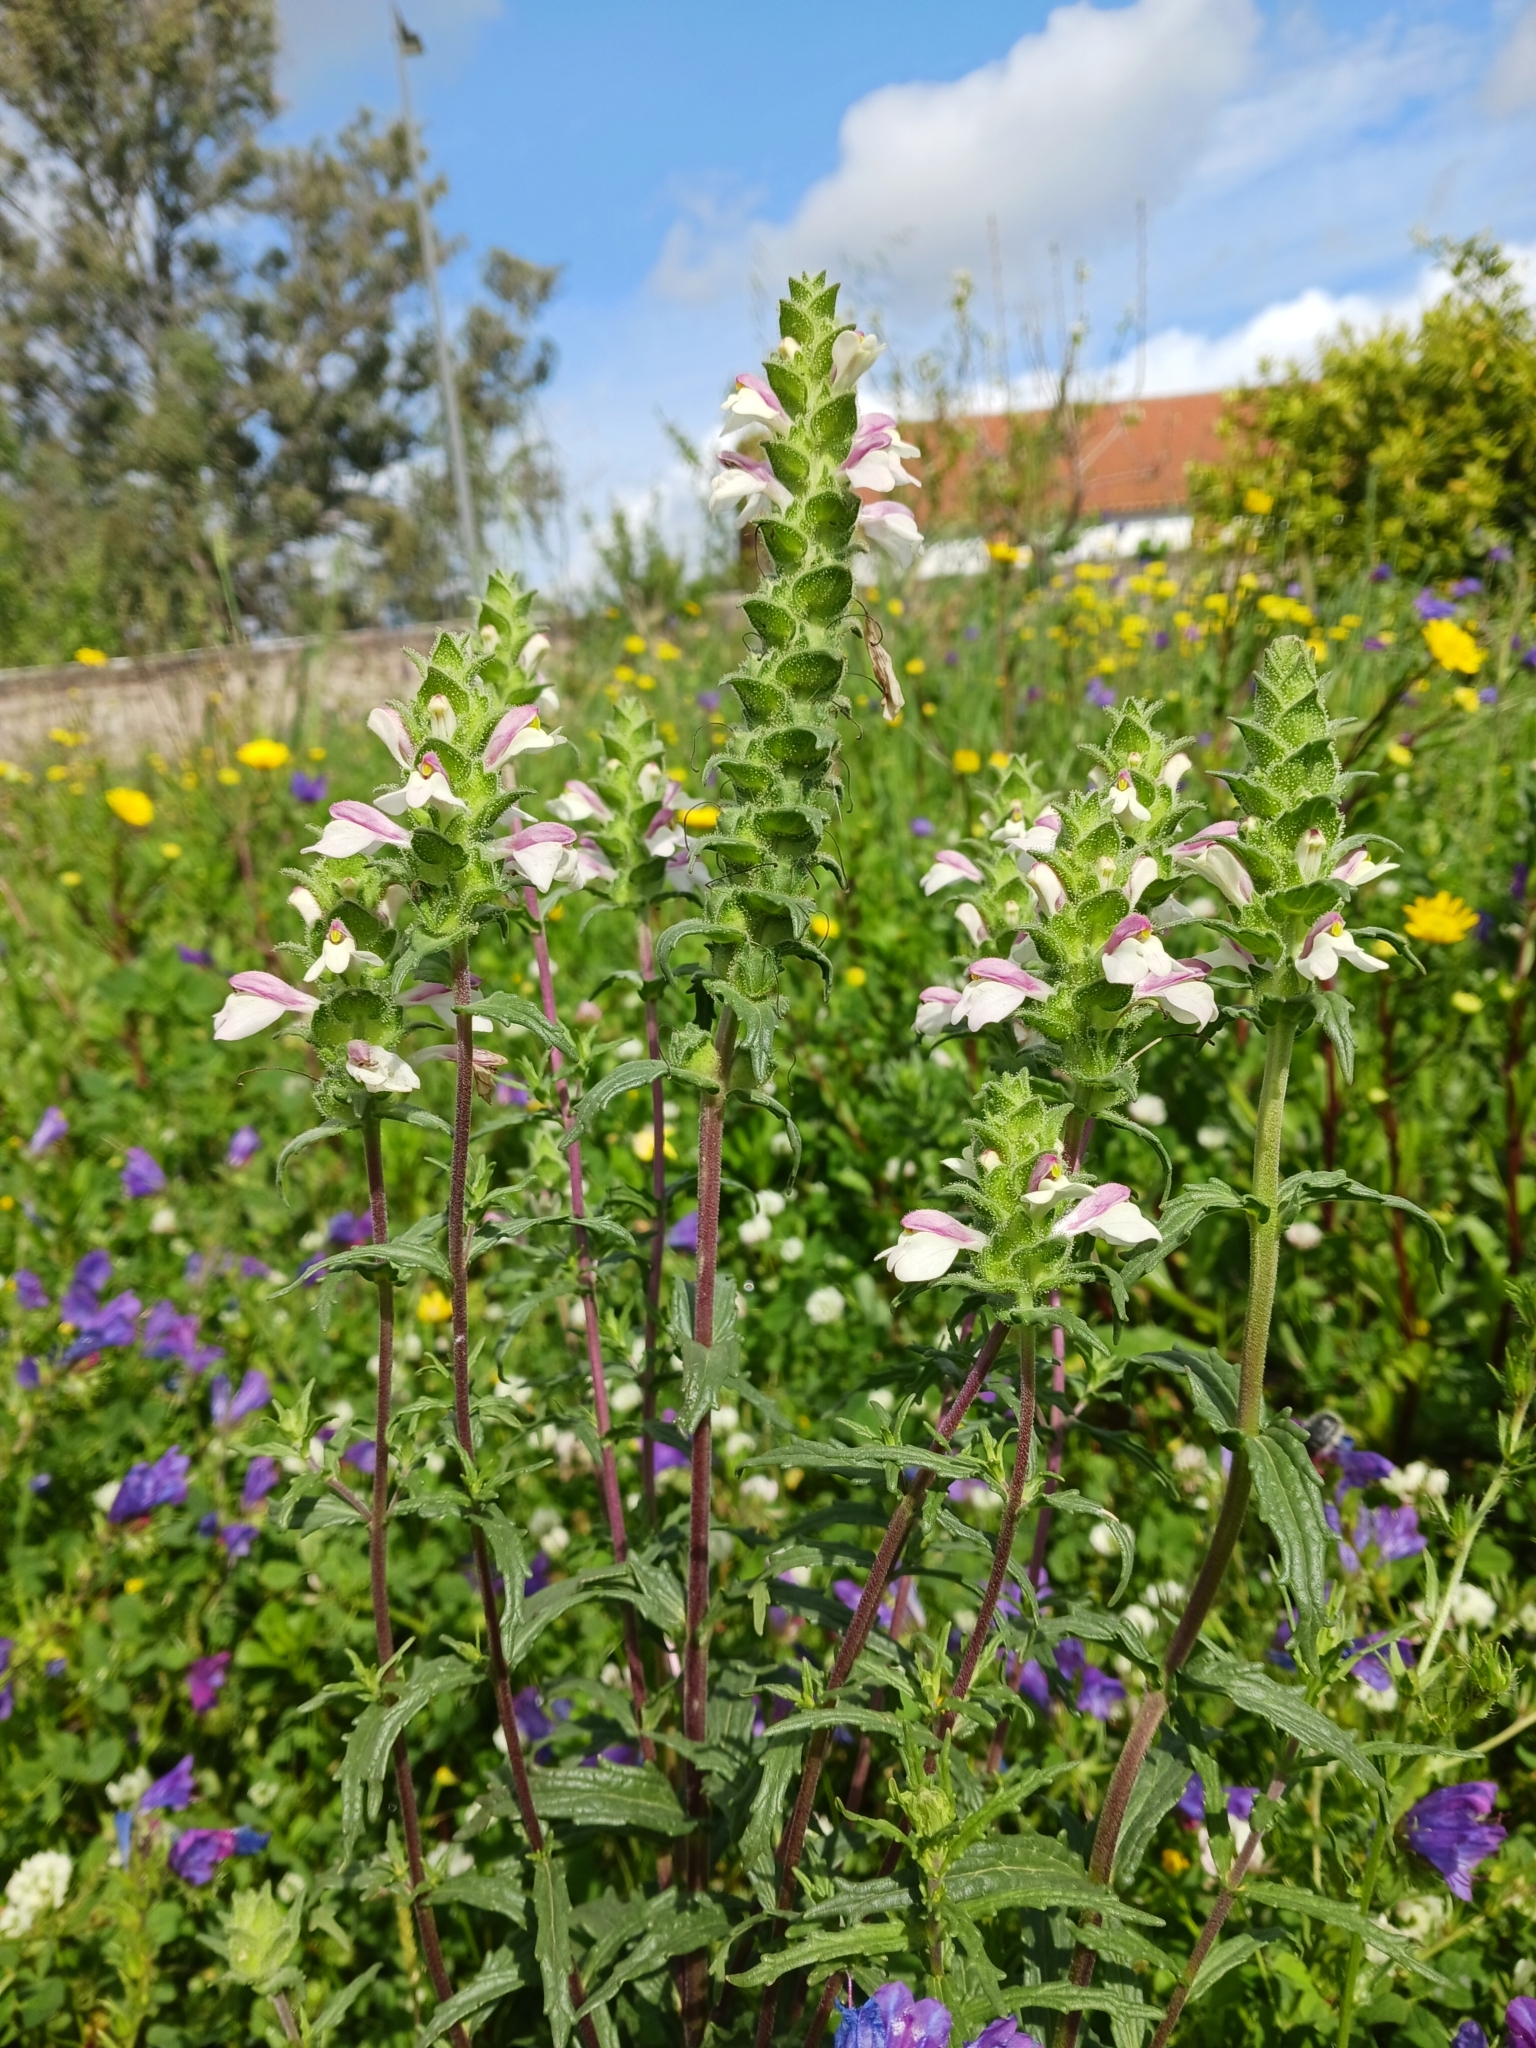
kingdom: Plantae
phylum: Tracheophyta
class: Magnoliopsida
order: Lamiales
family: Orobanchaceae
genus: Bellardia
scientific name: Bellardia trixago
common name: Mediterranean lineseed
